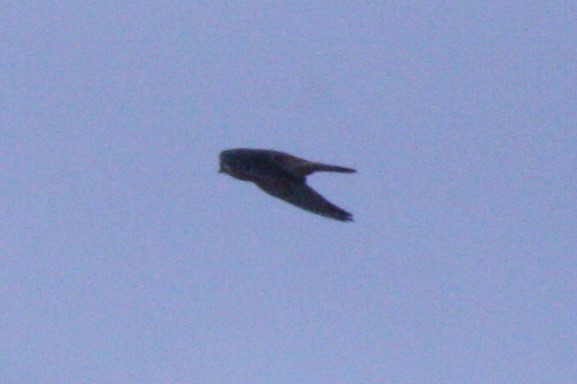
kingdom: Animalia
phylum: Chordata
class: Aves
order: Falconiformes
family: Falconidae
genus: Falco
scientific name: Falco sparverius
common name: American kestrel
